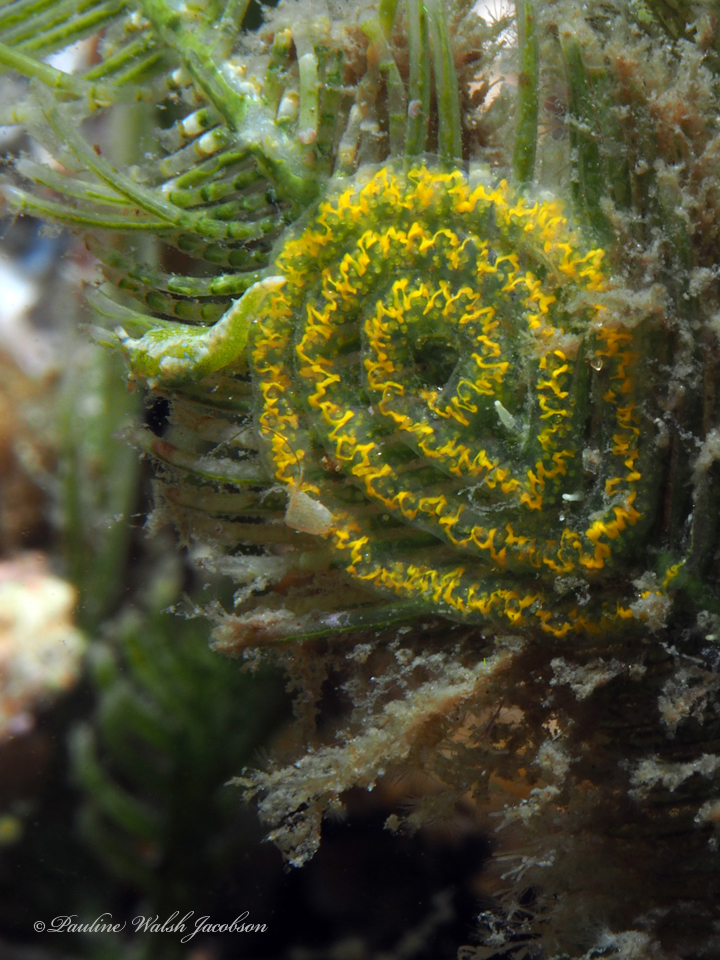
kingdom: Animalia
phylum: Mollusca
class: Gastropoda
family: Oxynoidae
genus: Oxynoe
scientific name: Oxynoe antillarum
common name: Antilles oxynoe
